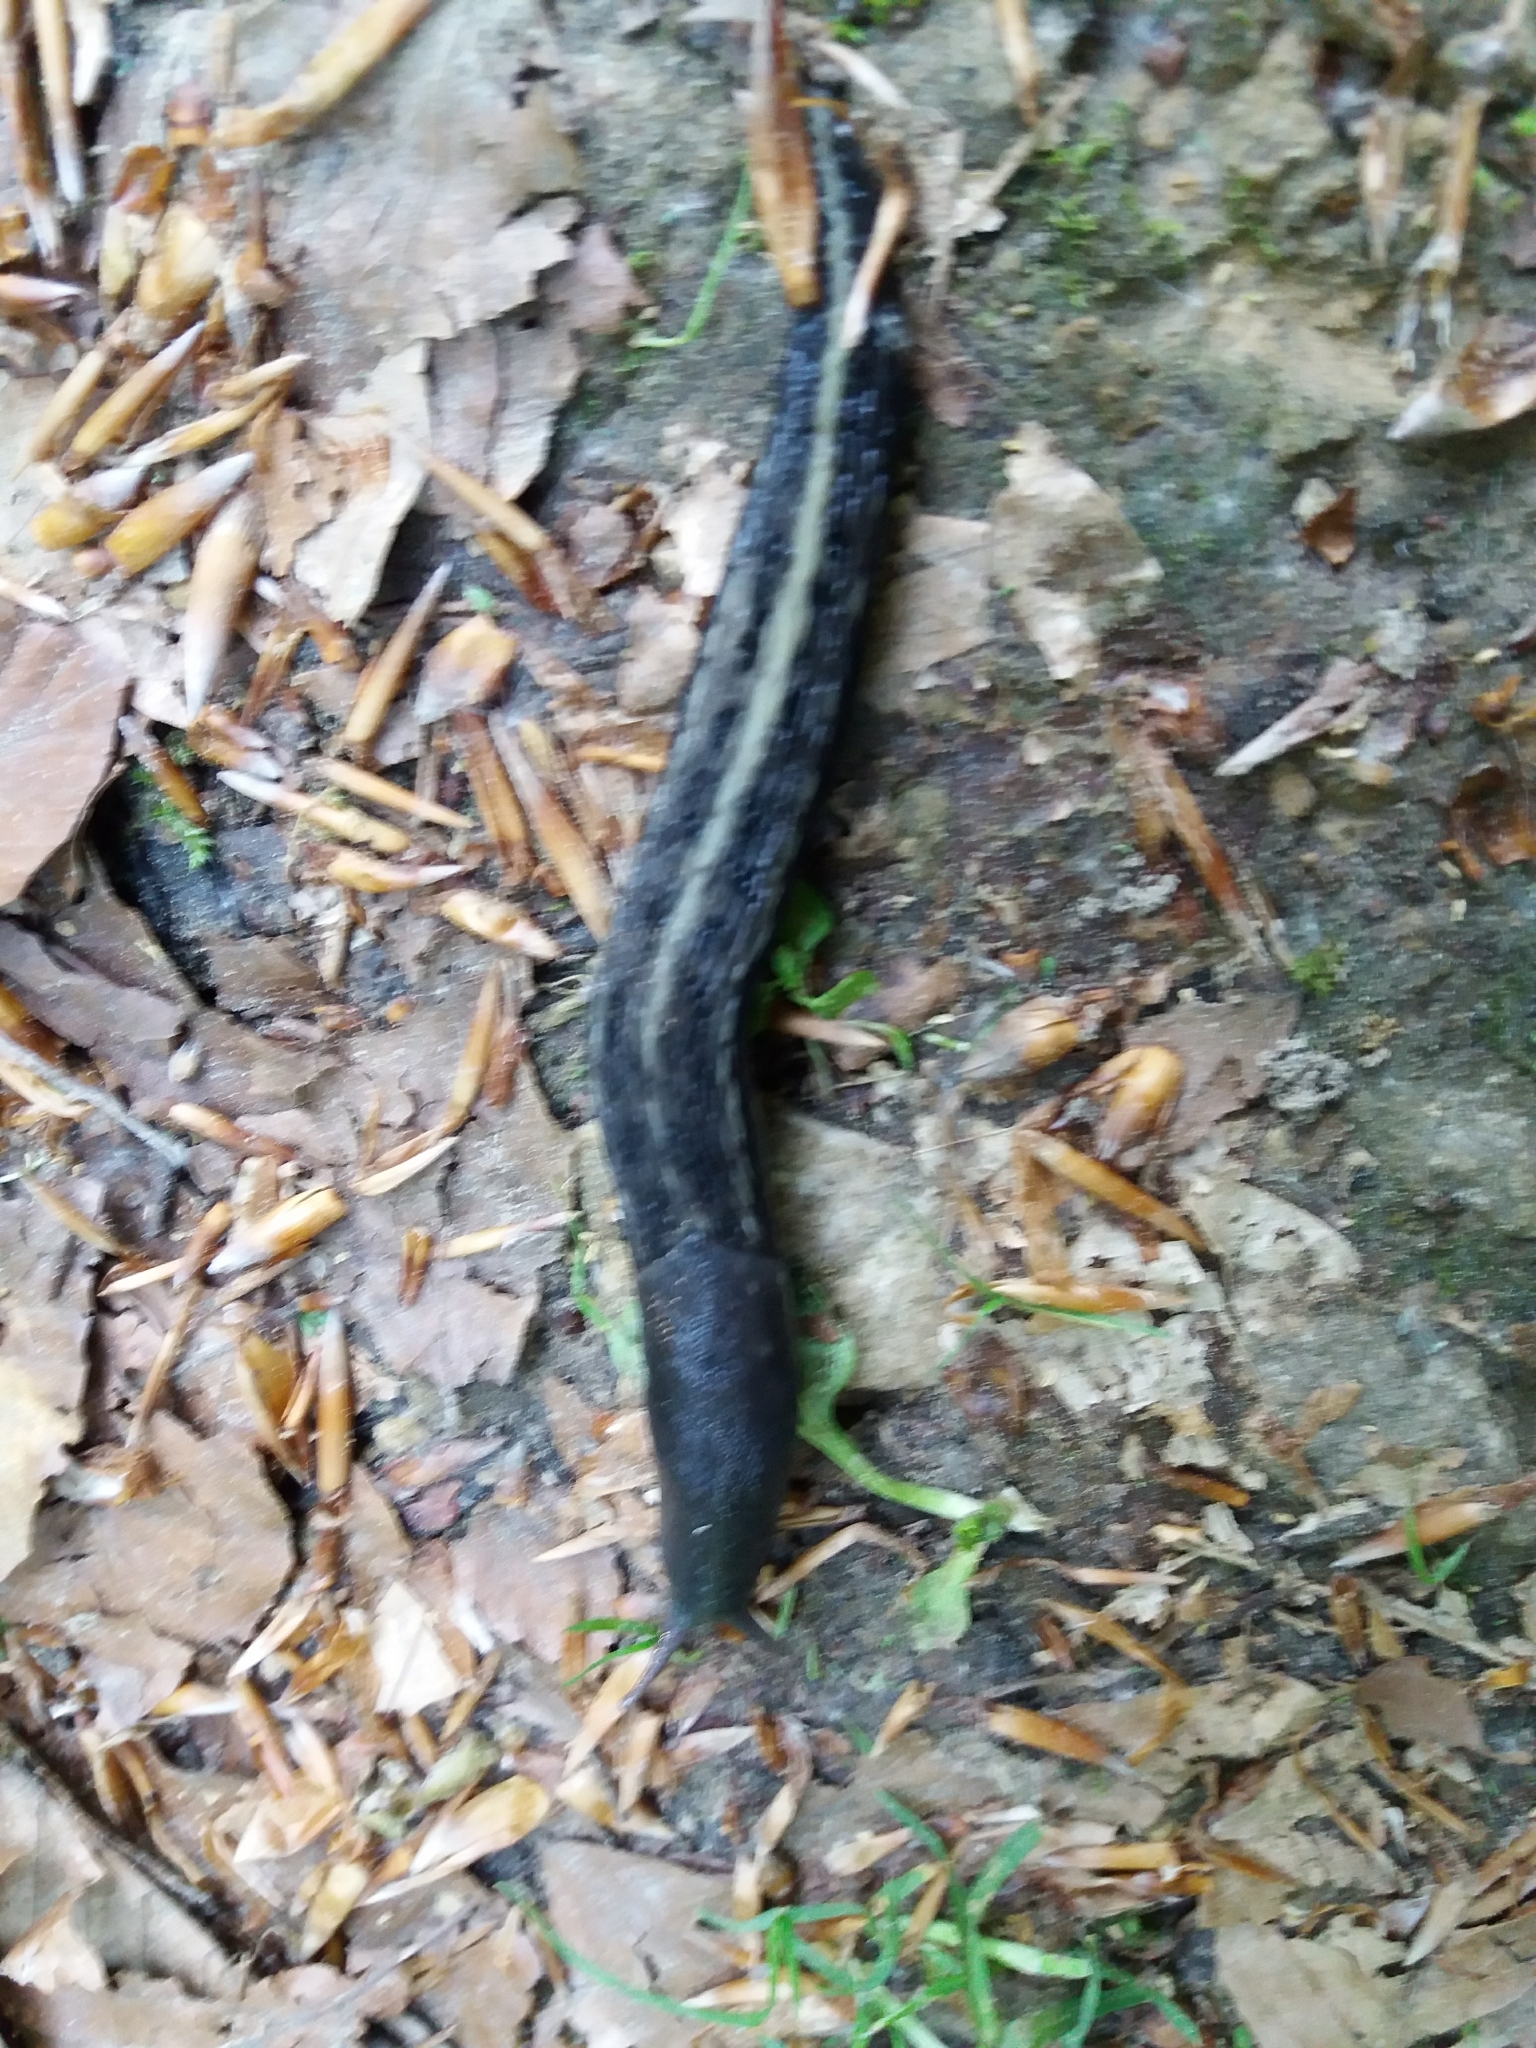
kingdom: Animalia
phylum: Mollusca
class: Gastropoda
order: Stylommatophora
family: Limacidae
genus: Limax
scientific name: Limax cinereoniger
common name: Ash-black slug
